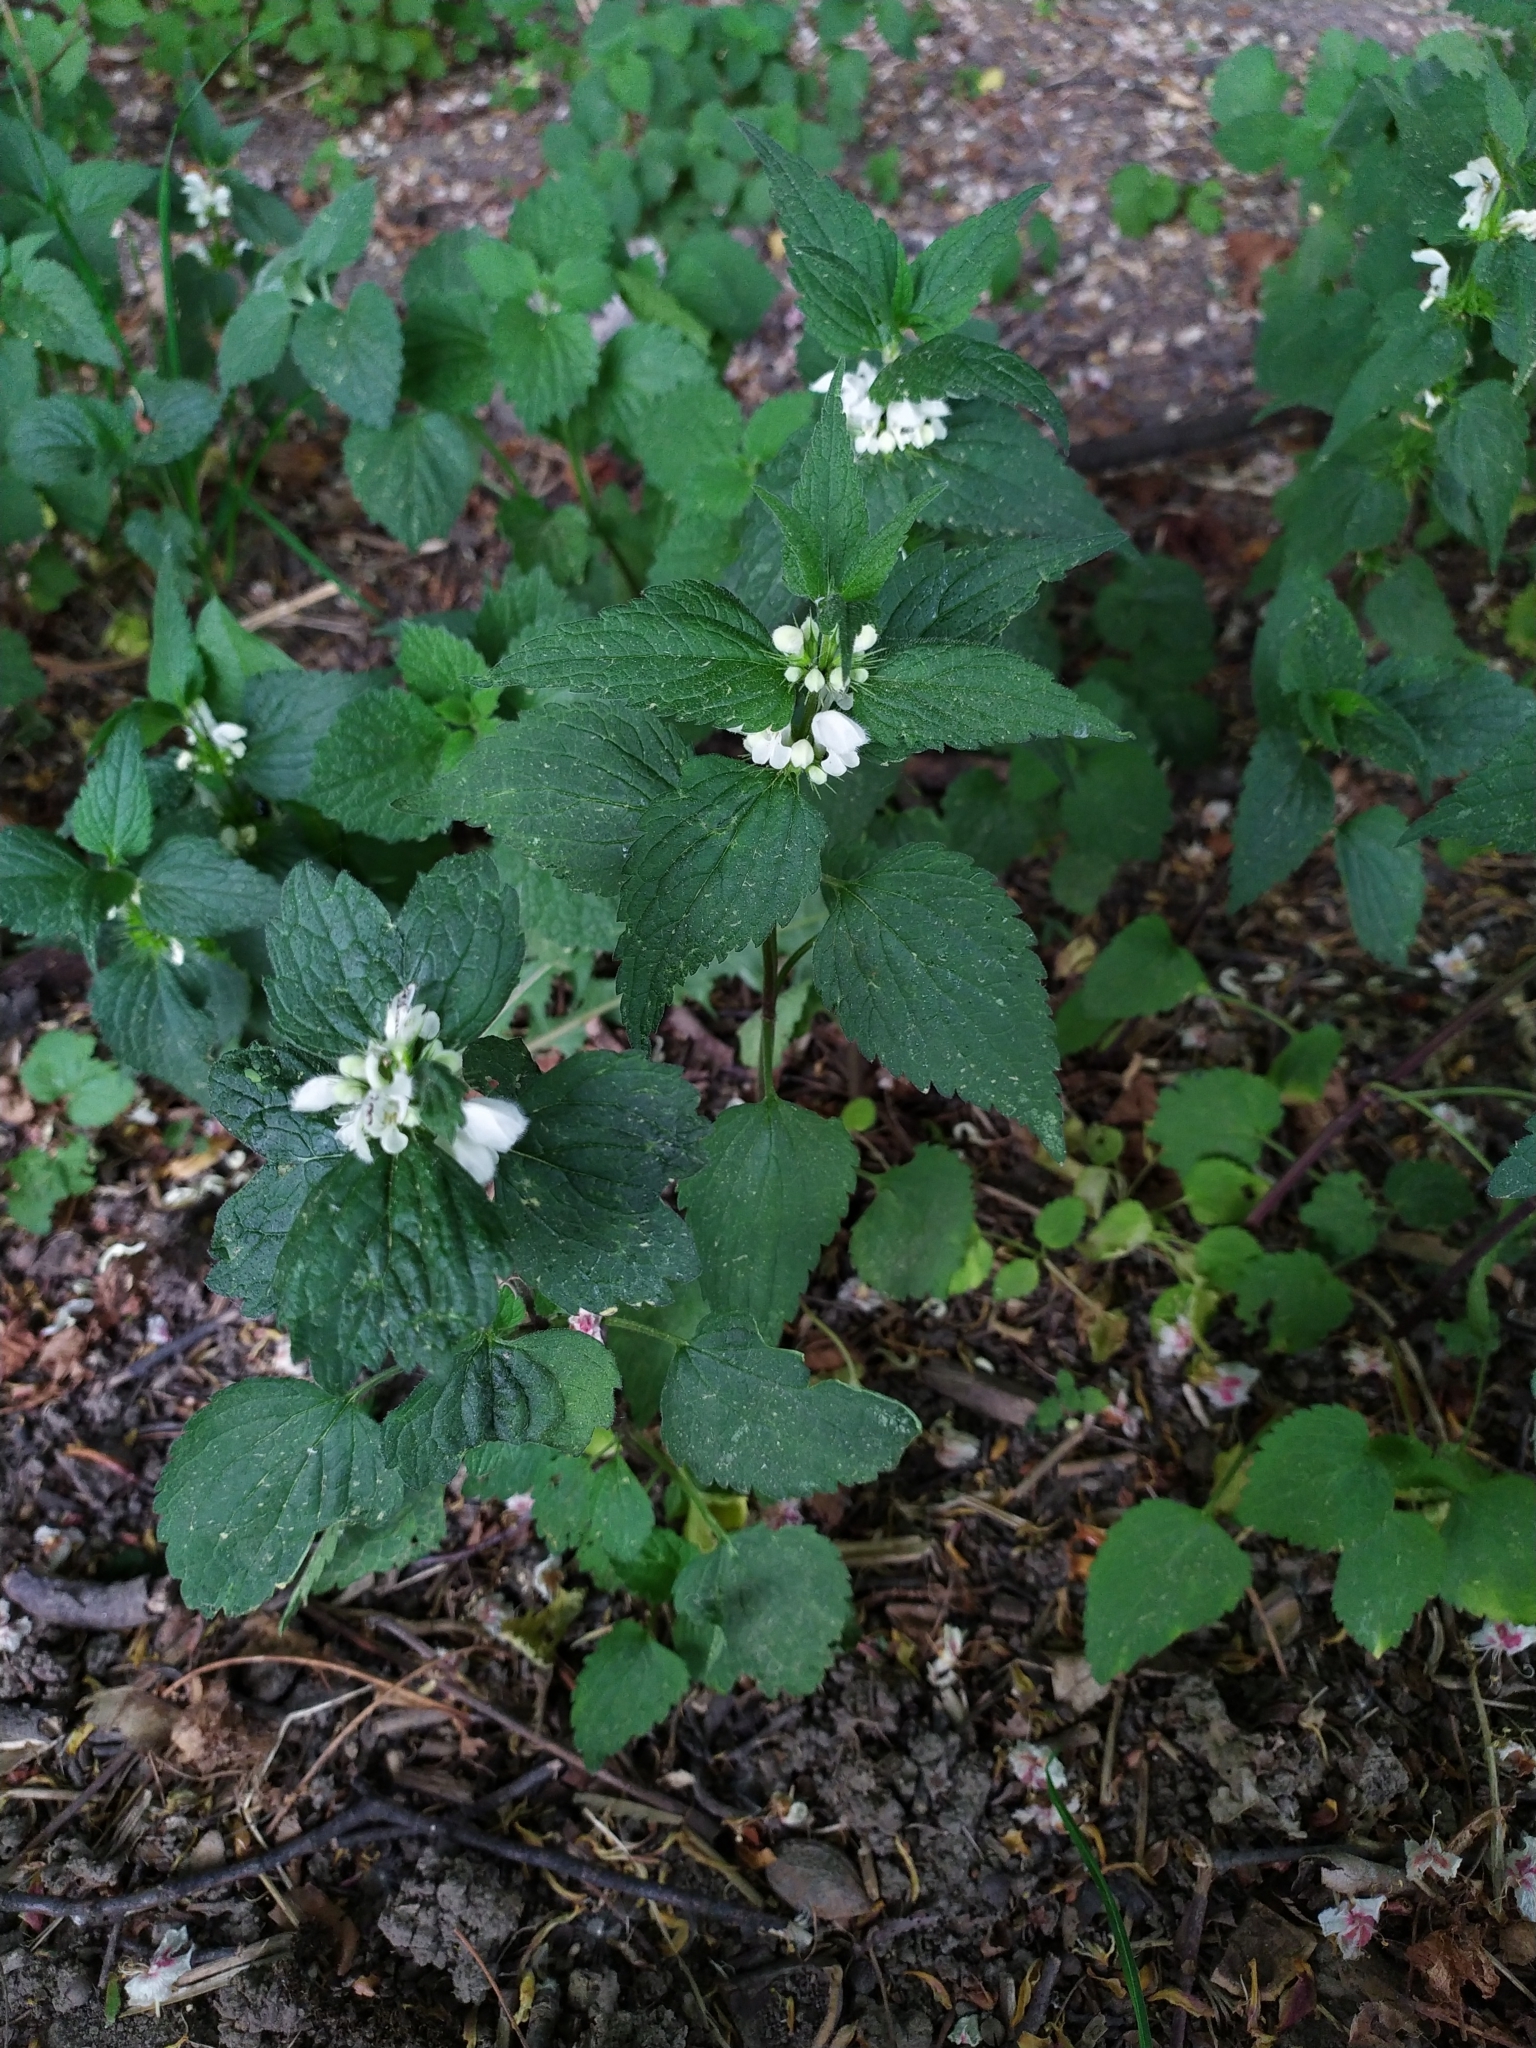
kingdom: Plantae
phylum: Tracheophyta
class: Magnoliopsida
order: Lamiales
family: Lamiaceae
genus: Lamium
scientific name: Lamium album
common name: White dead-nettle
